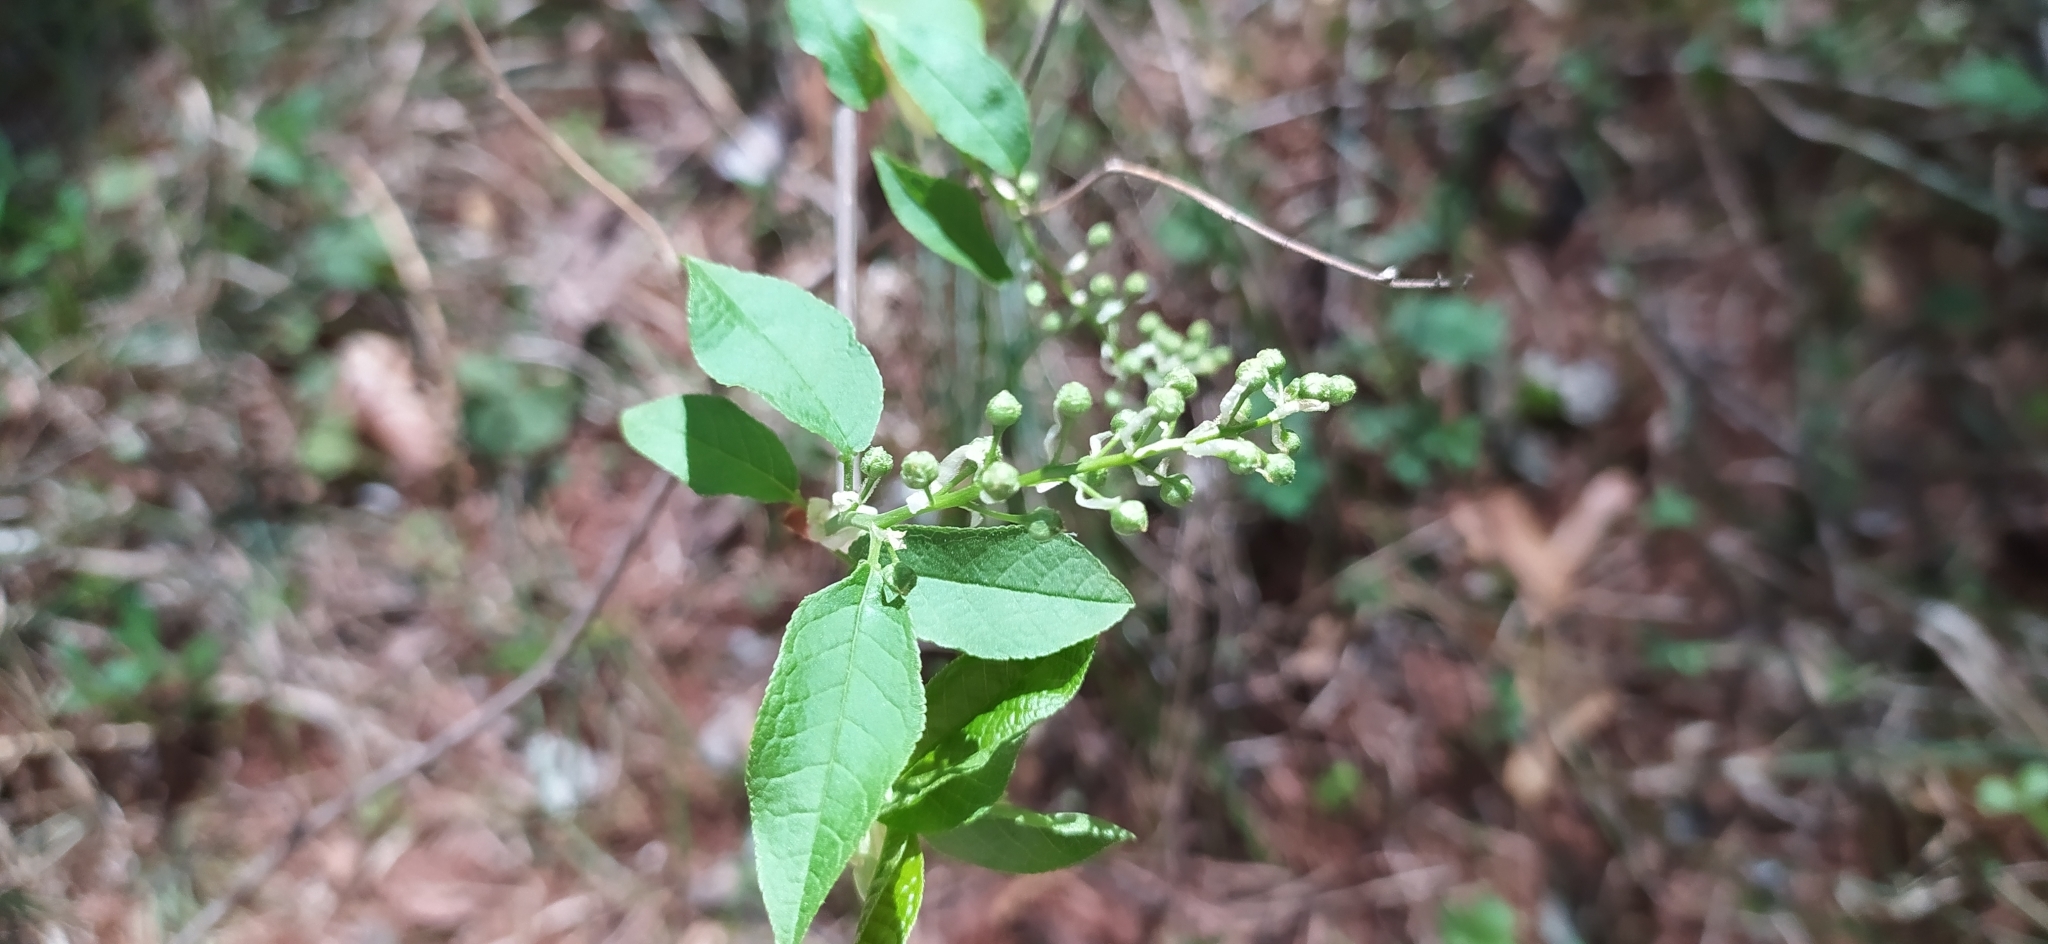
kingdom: Plantae
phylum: Tracheophyta
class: Magnoliopsida
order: Rosales
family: Rosaceae
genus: Prunus
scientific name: Prunus padus
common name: Bird cherry
